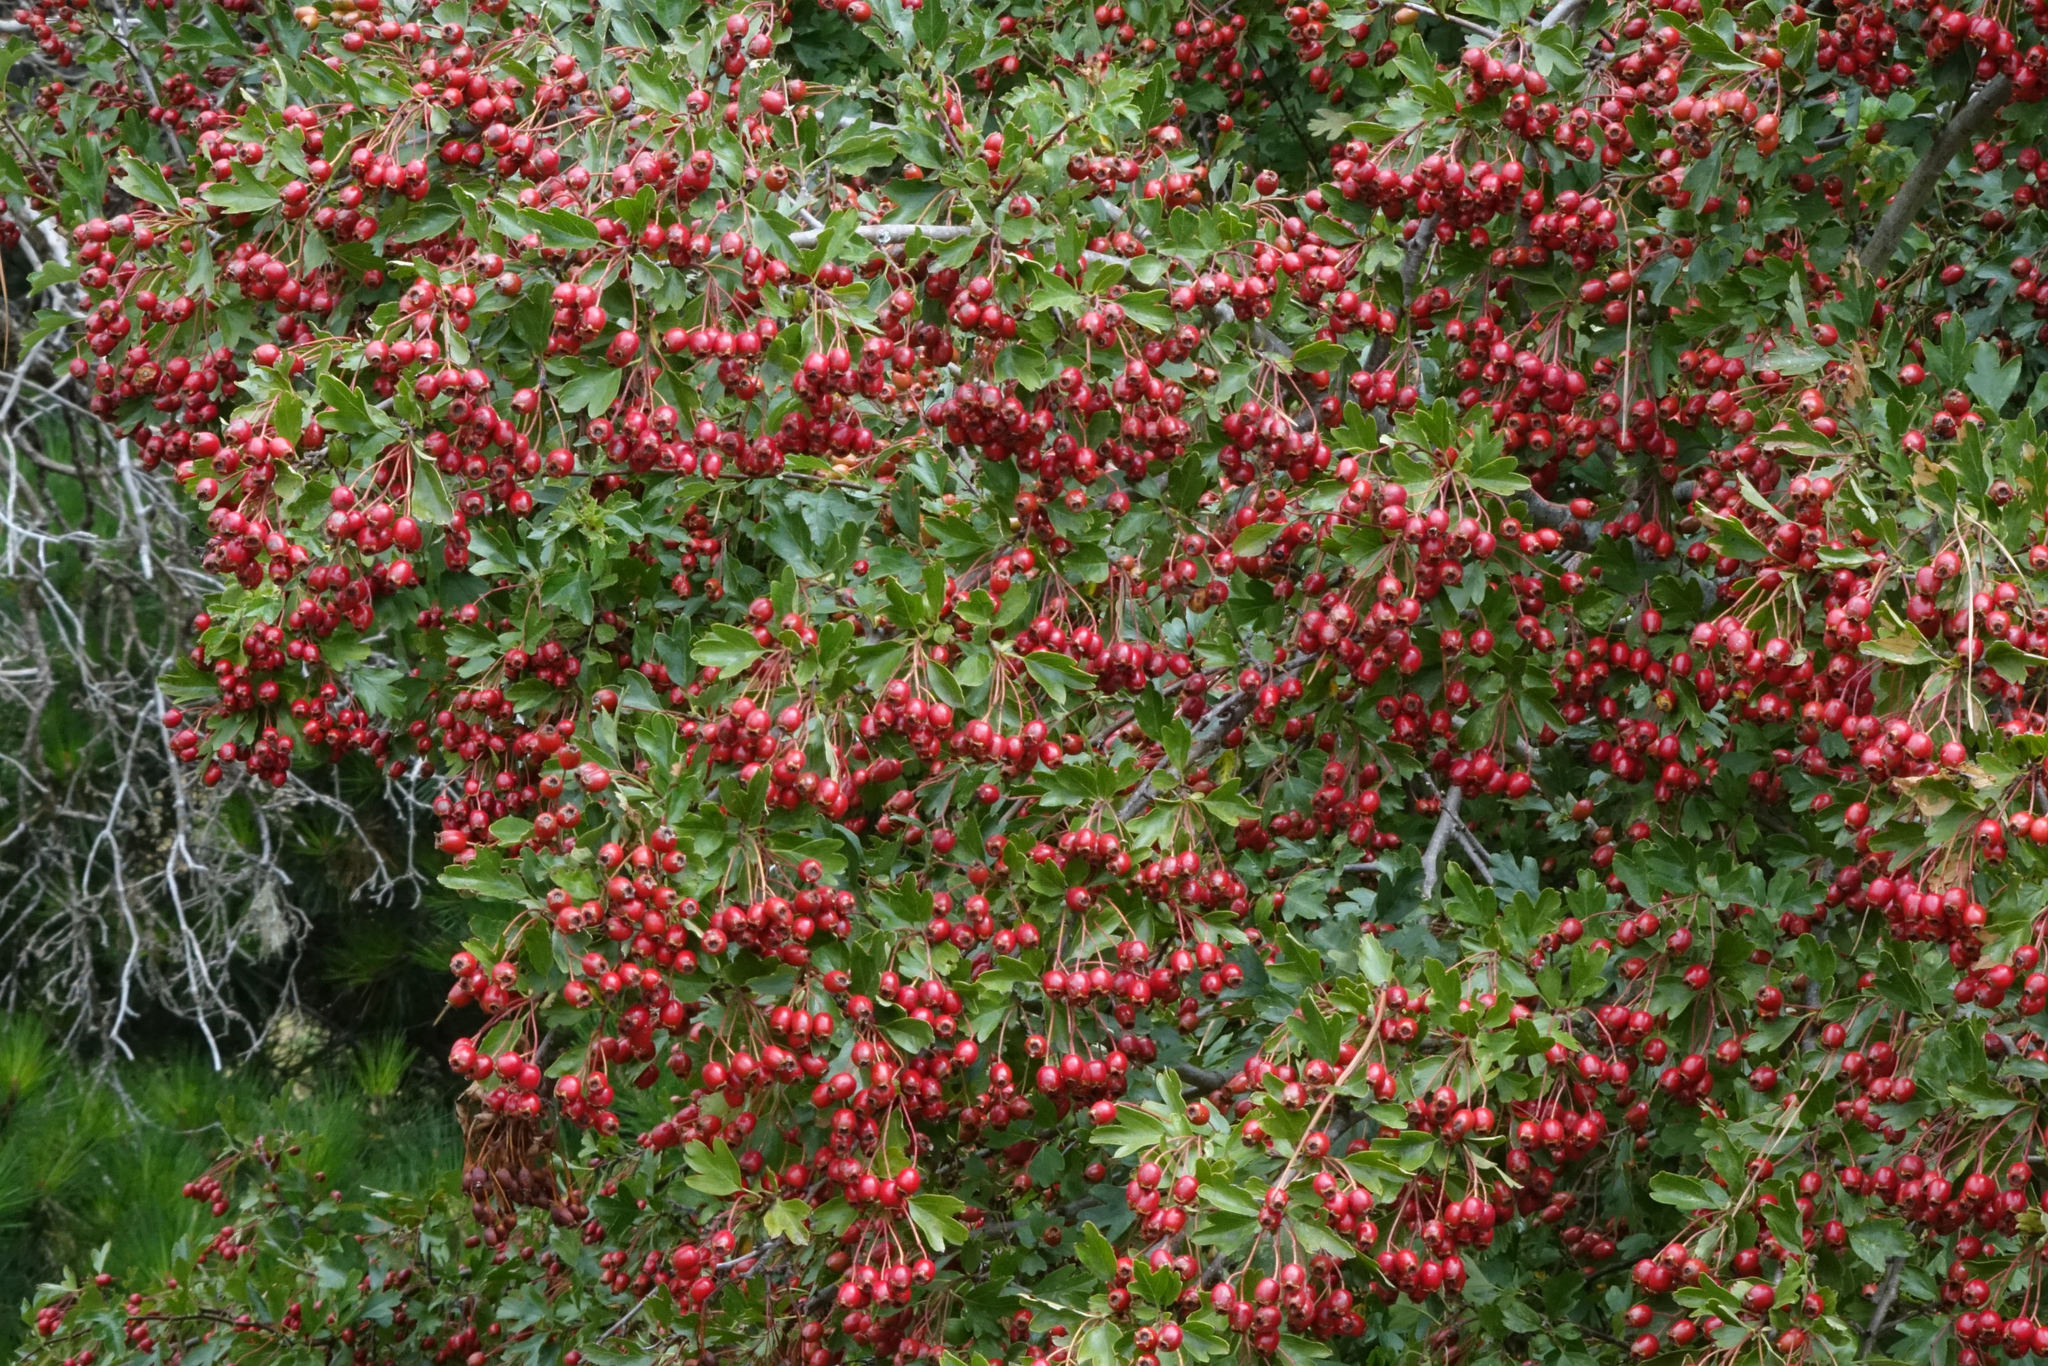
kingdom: Plantae
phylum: Tracheophyta
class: Magnoliopsida
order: Rosales
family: Rosaceae
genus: Crataegus
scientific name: Crataegus monogyna
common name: Hawthorn
